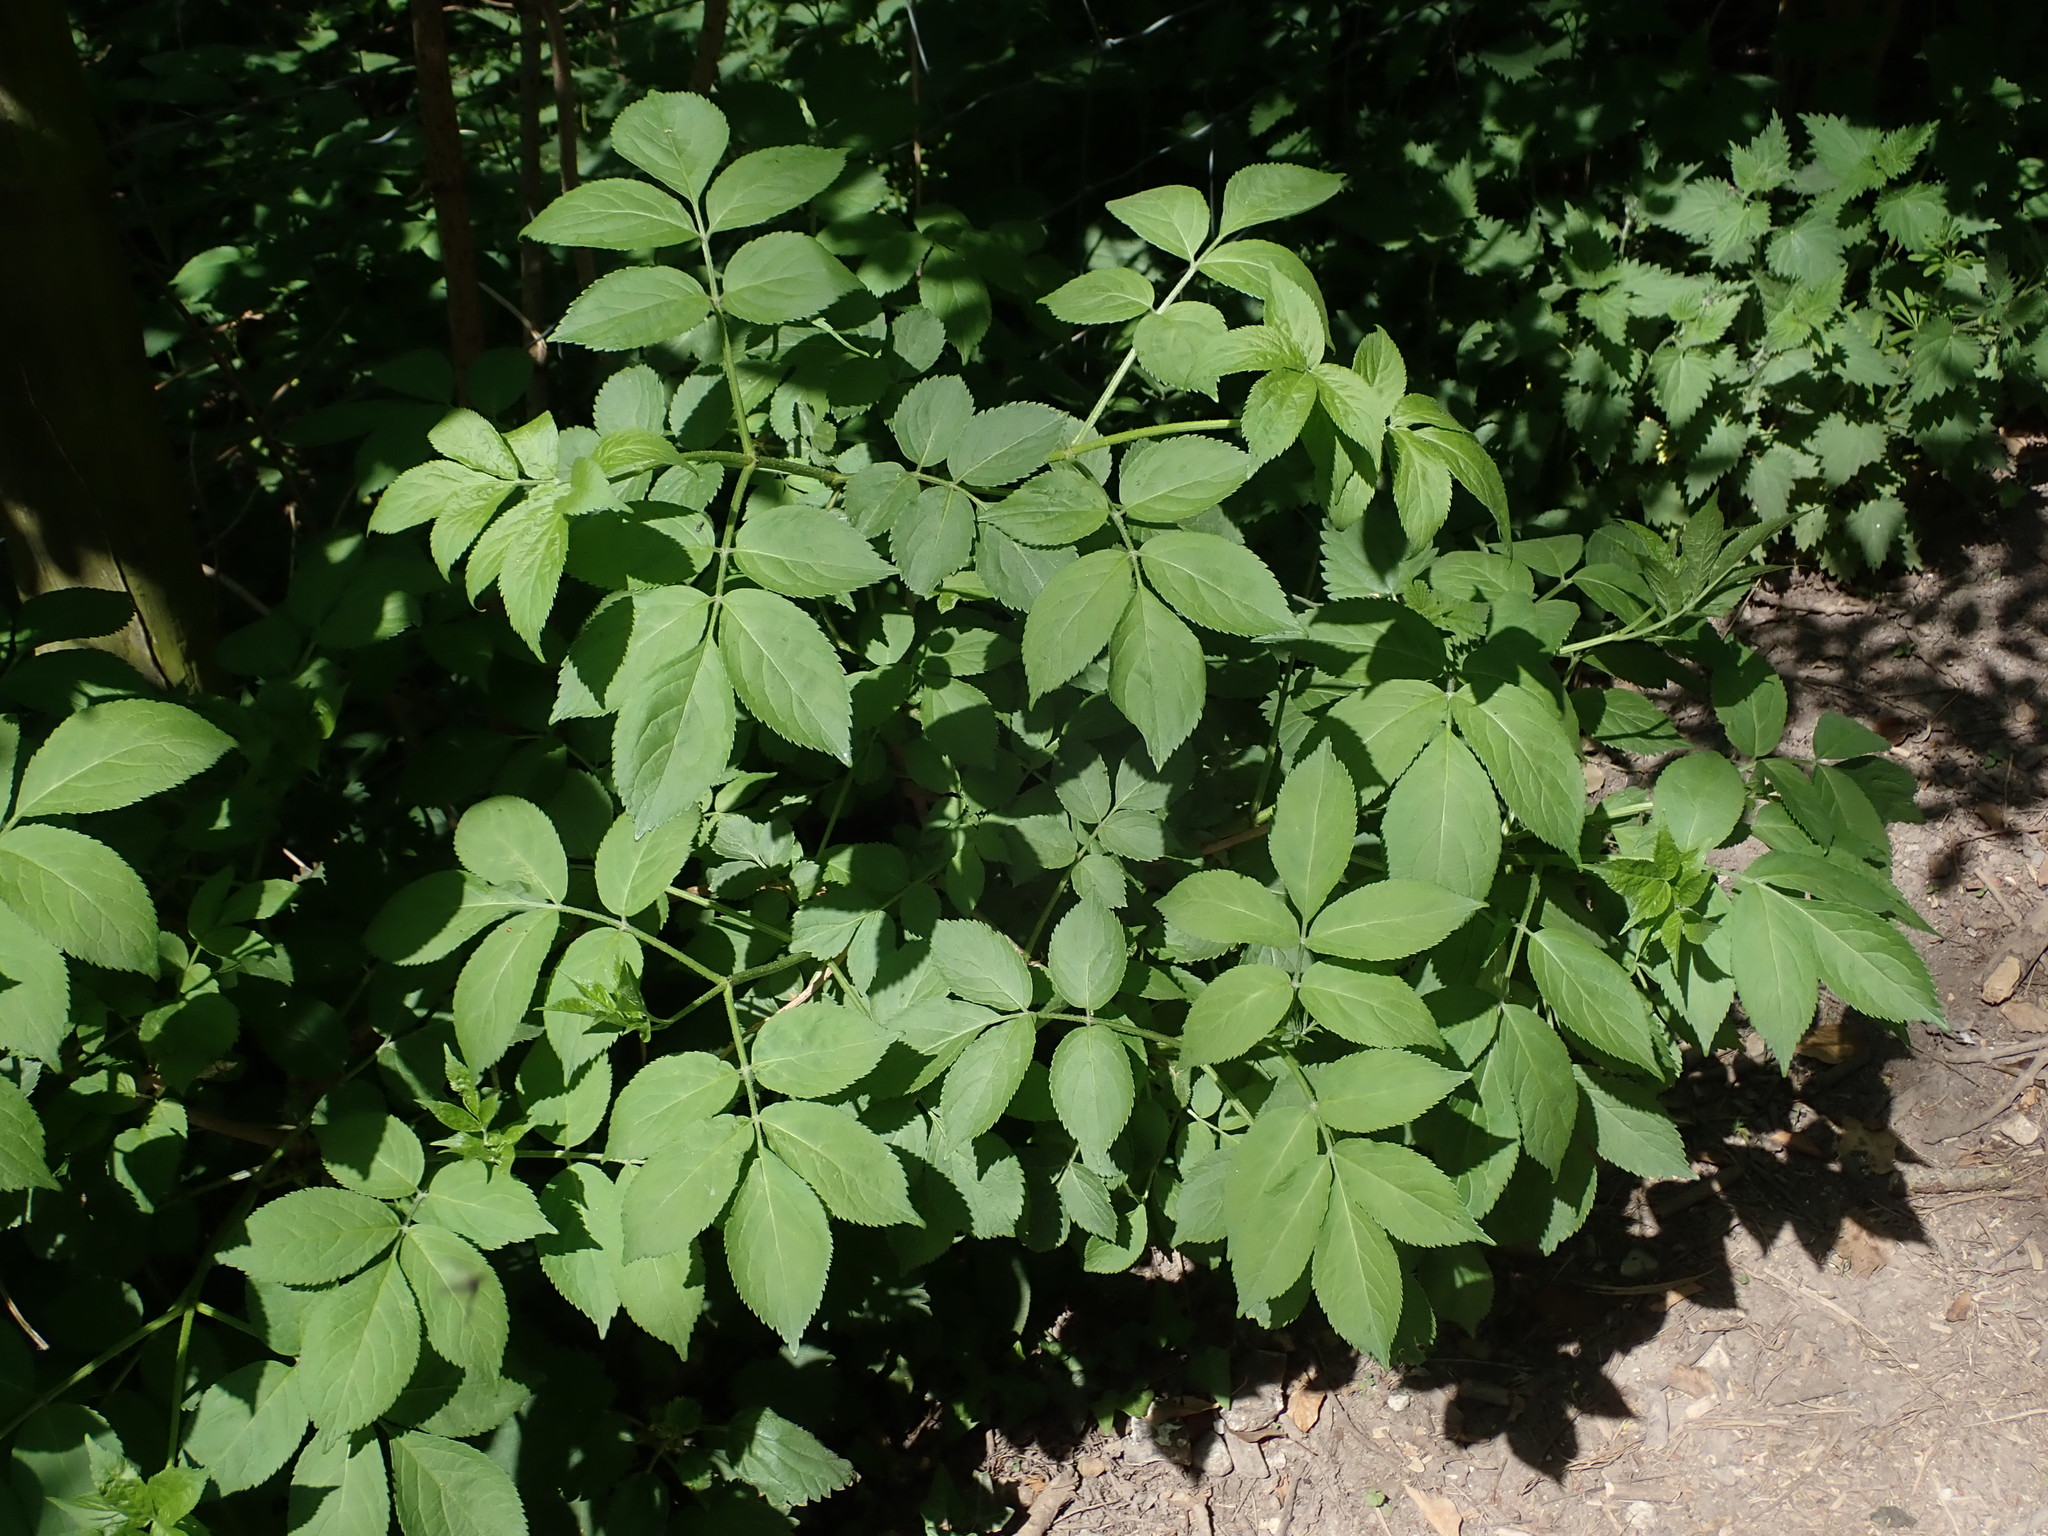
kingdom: Plantae
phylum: Tracheophyta
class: Magnoliopsida
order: Dipsacales
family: Viburnaceae
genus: Sambucus
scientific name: Sambucus nigra
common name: Elder
